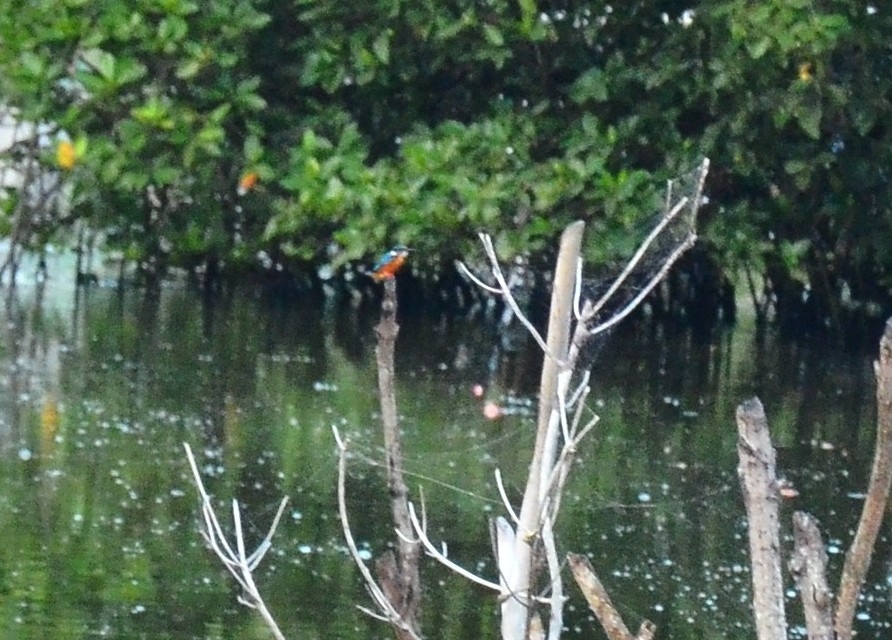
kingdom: Animalia
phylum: Chordata
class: Aves
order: Coraciiformes
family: Alcedinidae
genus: Alcedo
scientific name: Alcedo atthis
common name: Common kingfisher
